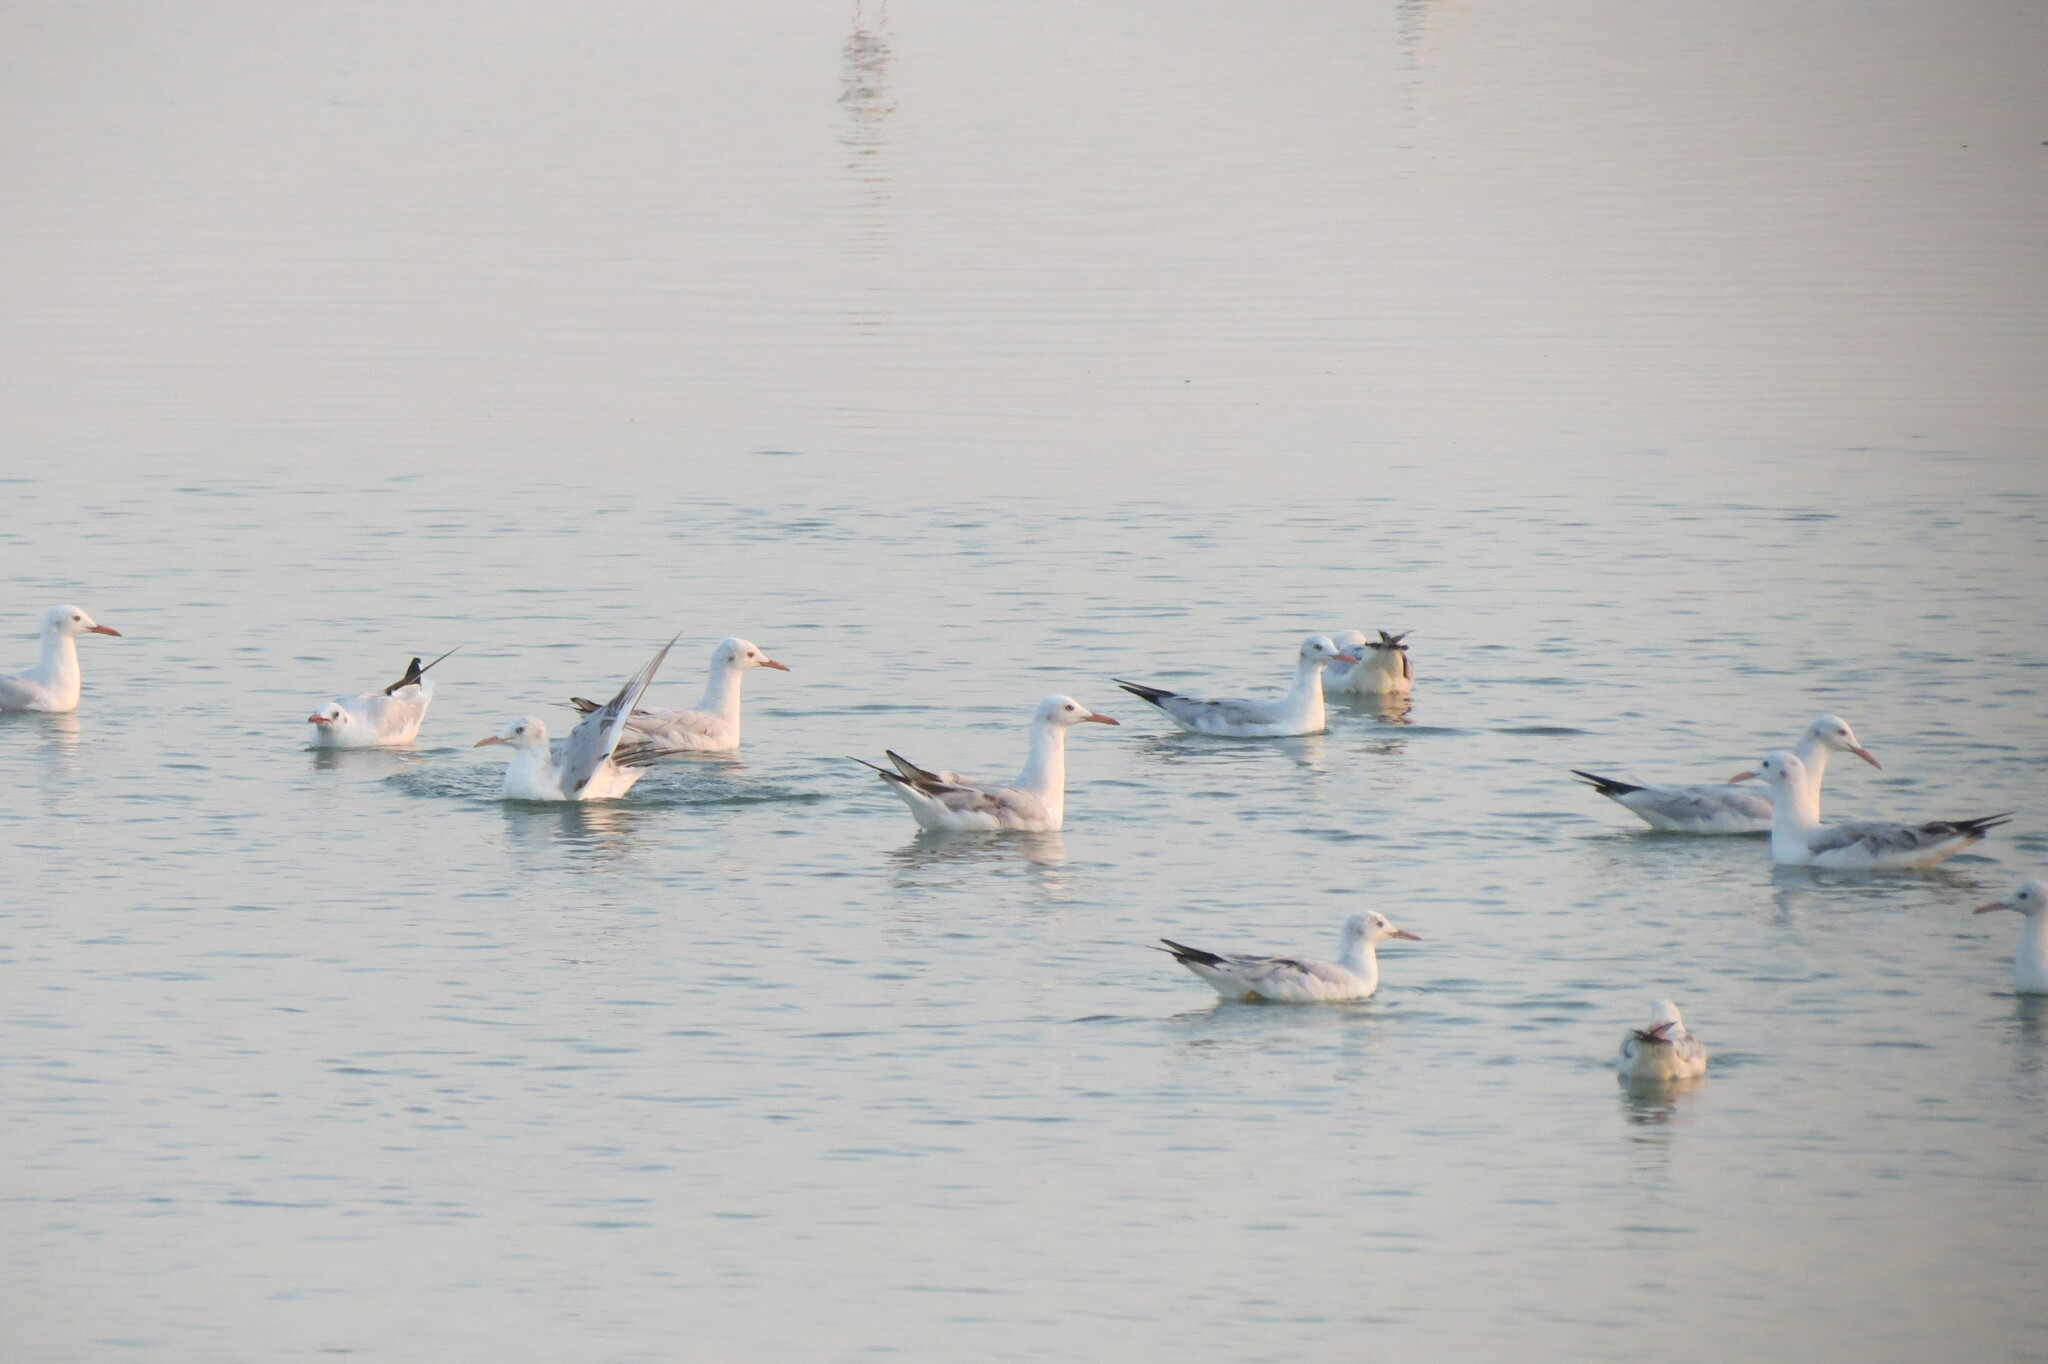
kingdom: Animalia
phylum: Chordata
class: Aves
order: Charadriiformes
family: Laridae
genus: Chroicocephalus
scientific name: Chroicocephalus genei
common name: Slender-billed gull
